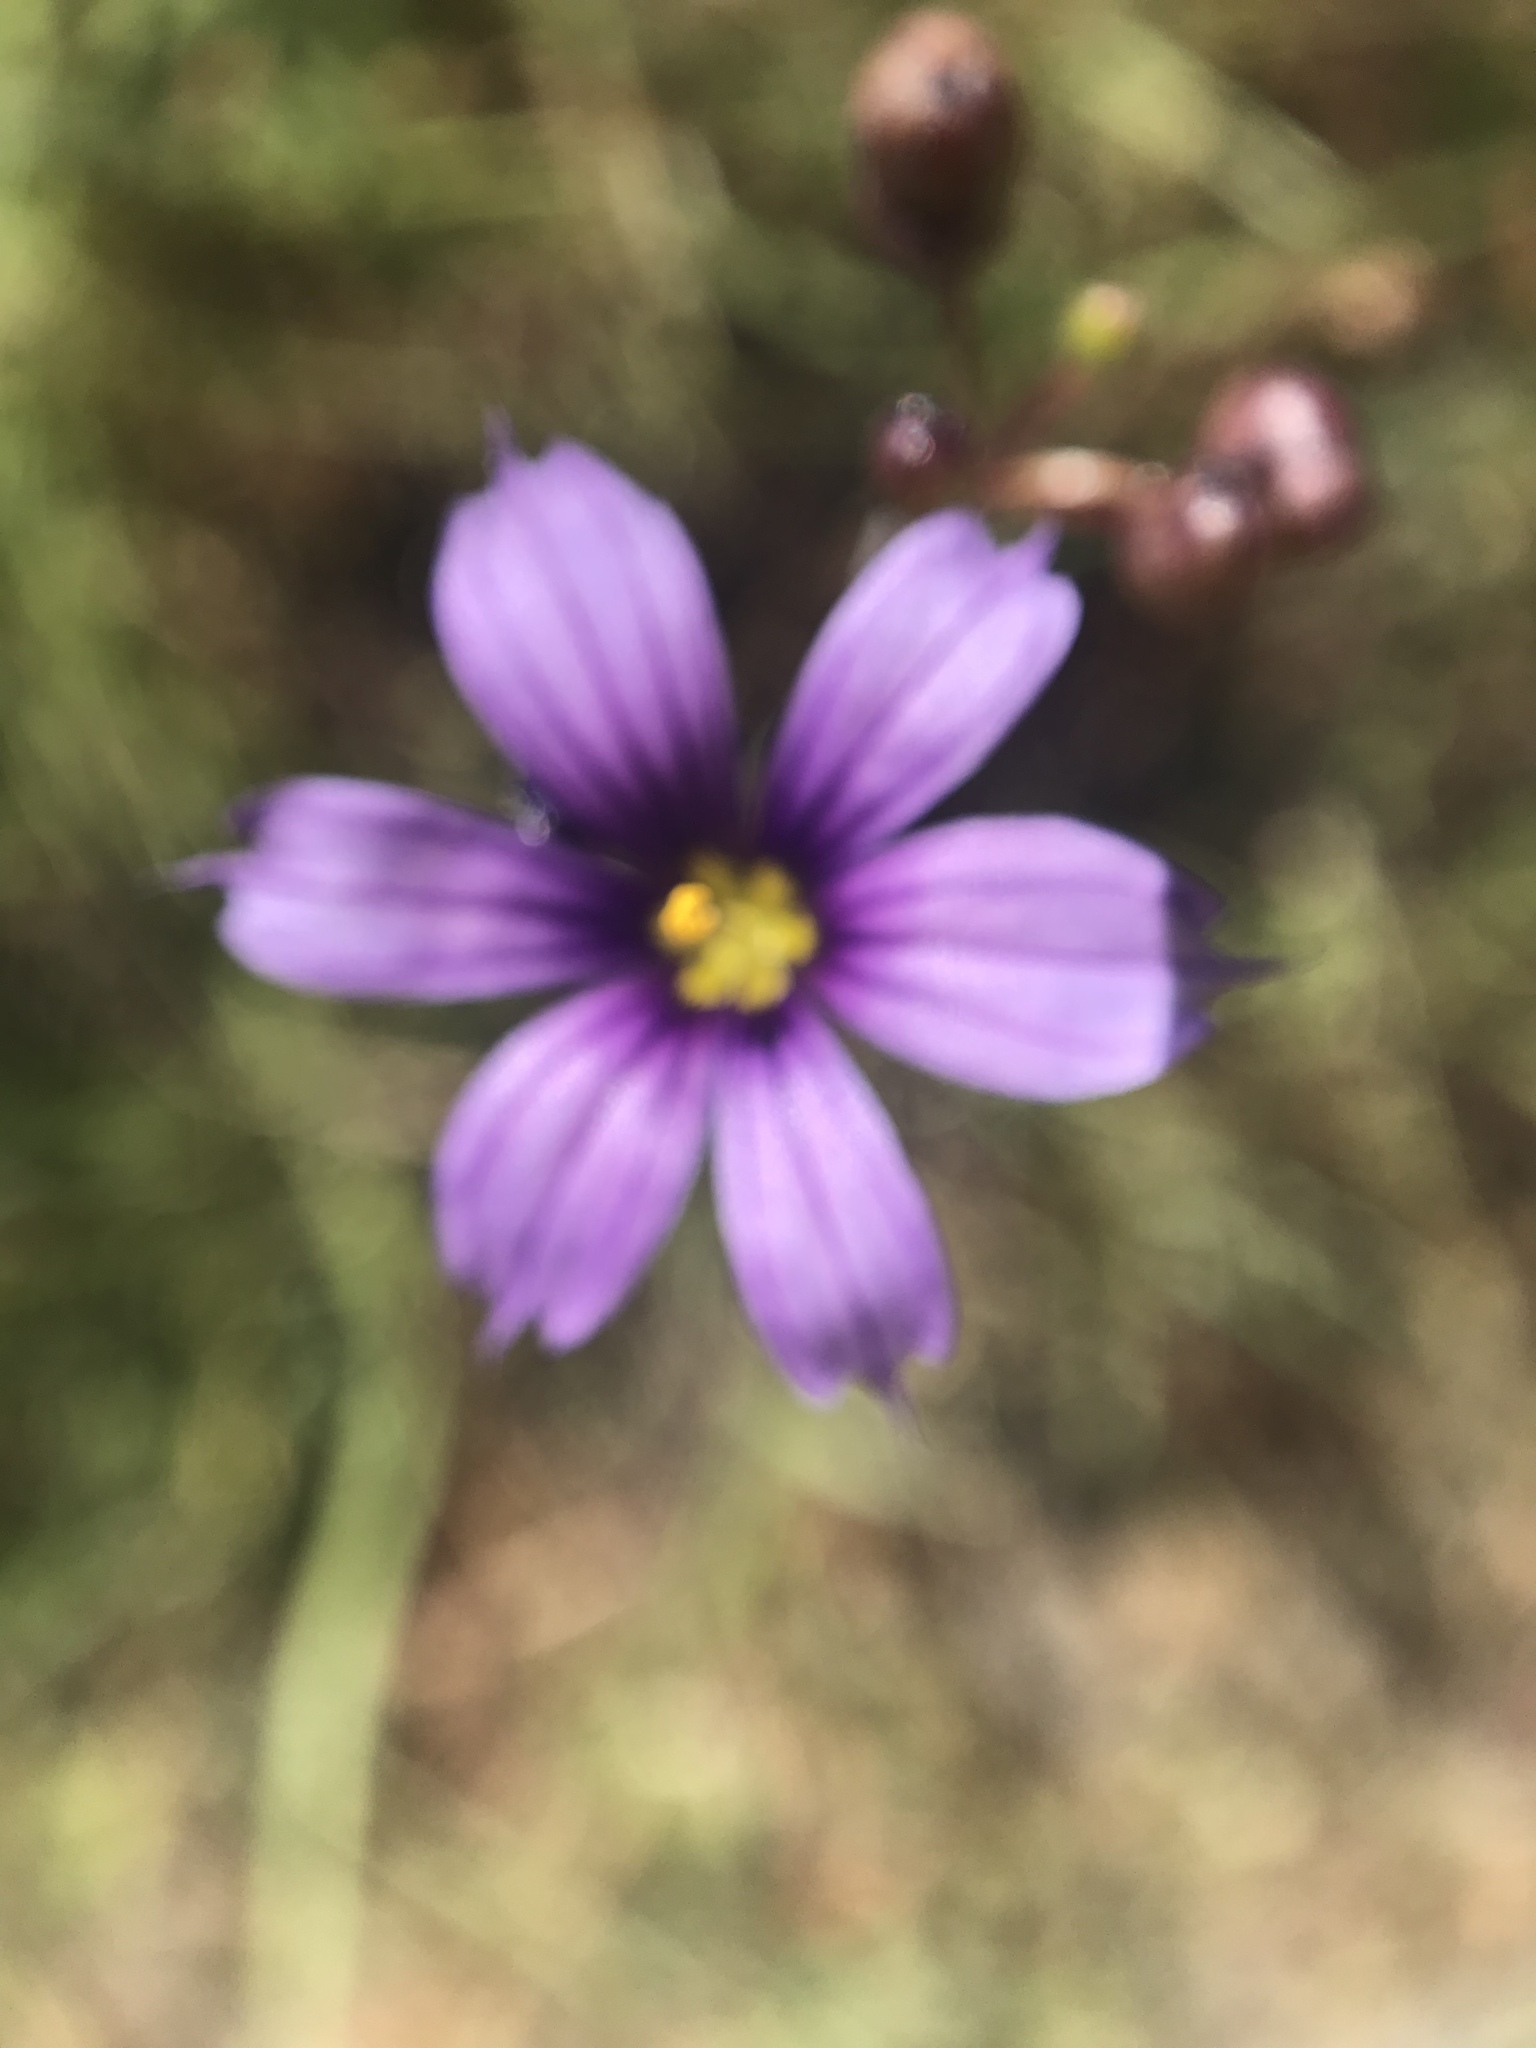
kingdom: Plantae
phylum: Tracheophyta
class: Liliopsida
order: Asparagales
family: Iridaceae
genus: Sisyrinchium
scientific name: Sisyrinchium bellum
